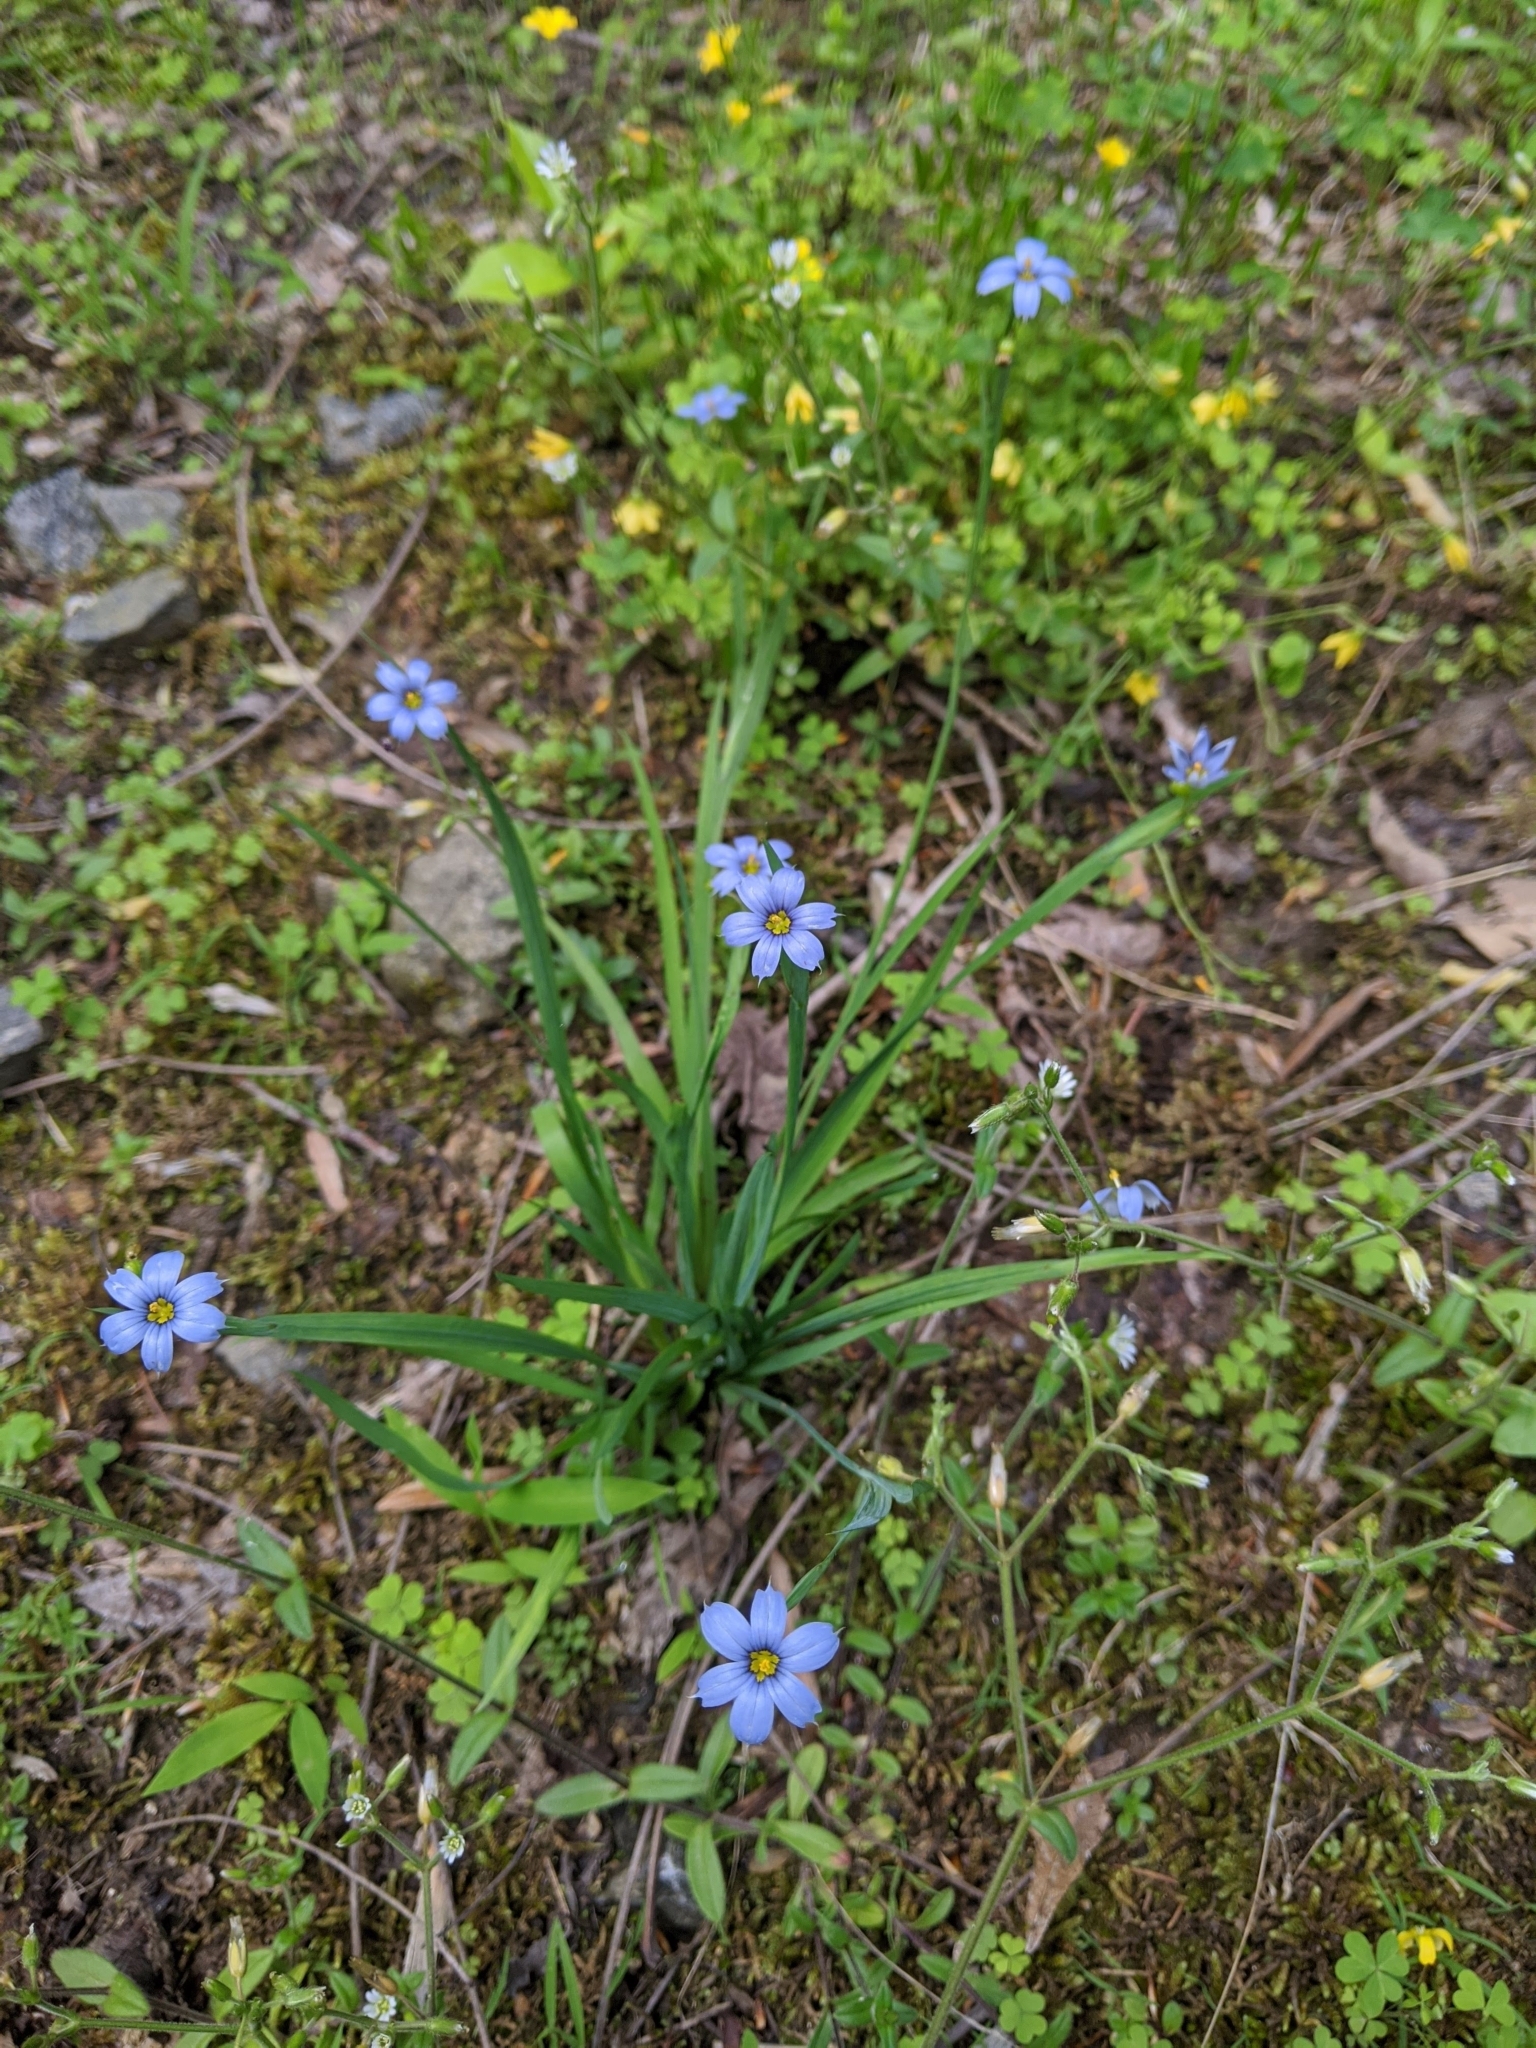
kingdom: Plantae
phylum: Tracheophyta
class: Liliopsida
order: Asparagales
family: Iridaceae
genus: Sisyrinchium
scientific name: Sisyrinchium angustifolium
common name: Narrow-leaf blue-eyed-grass
